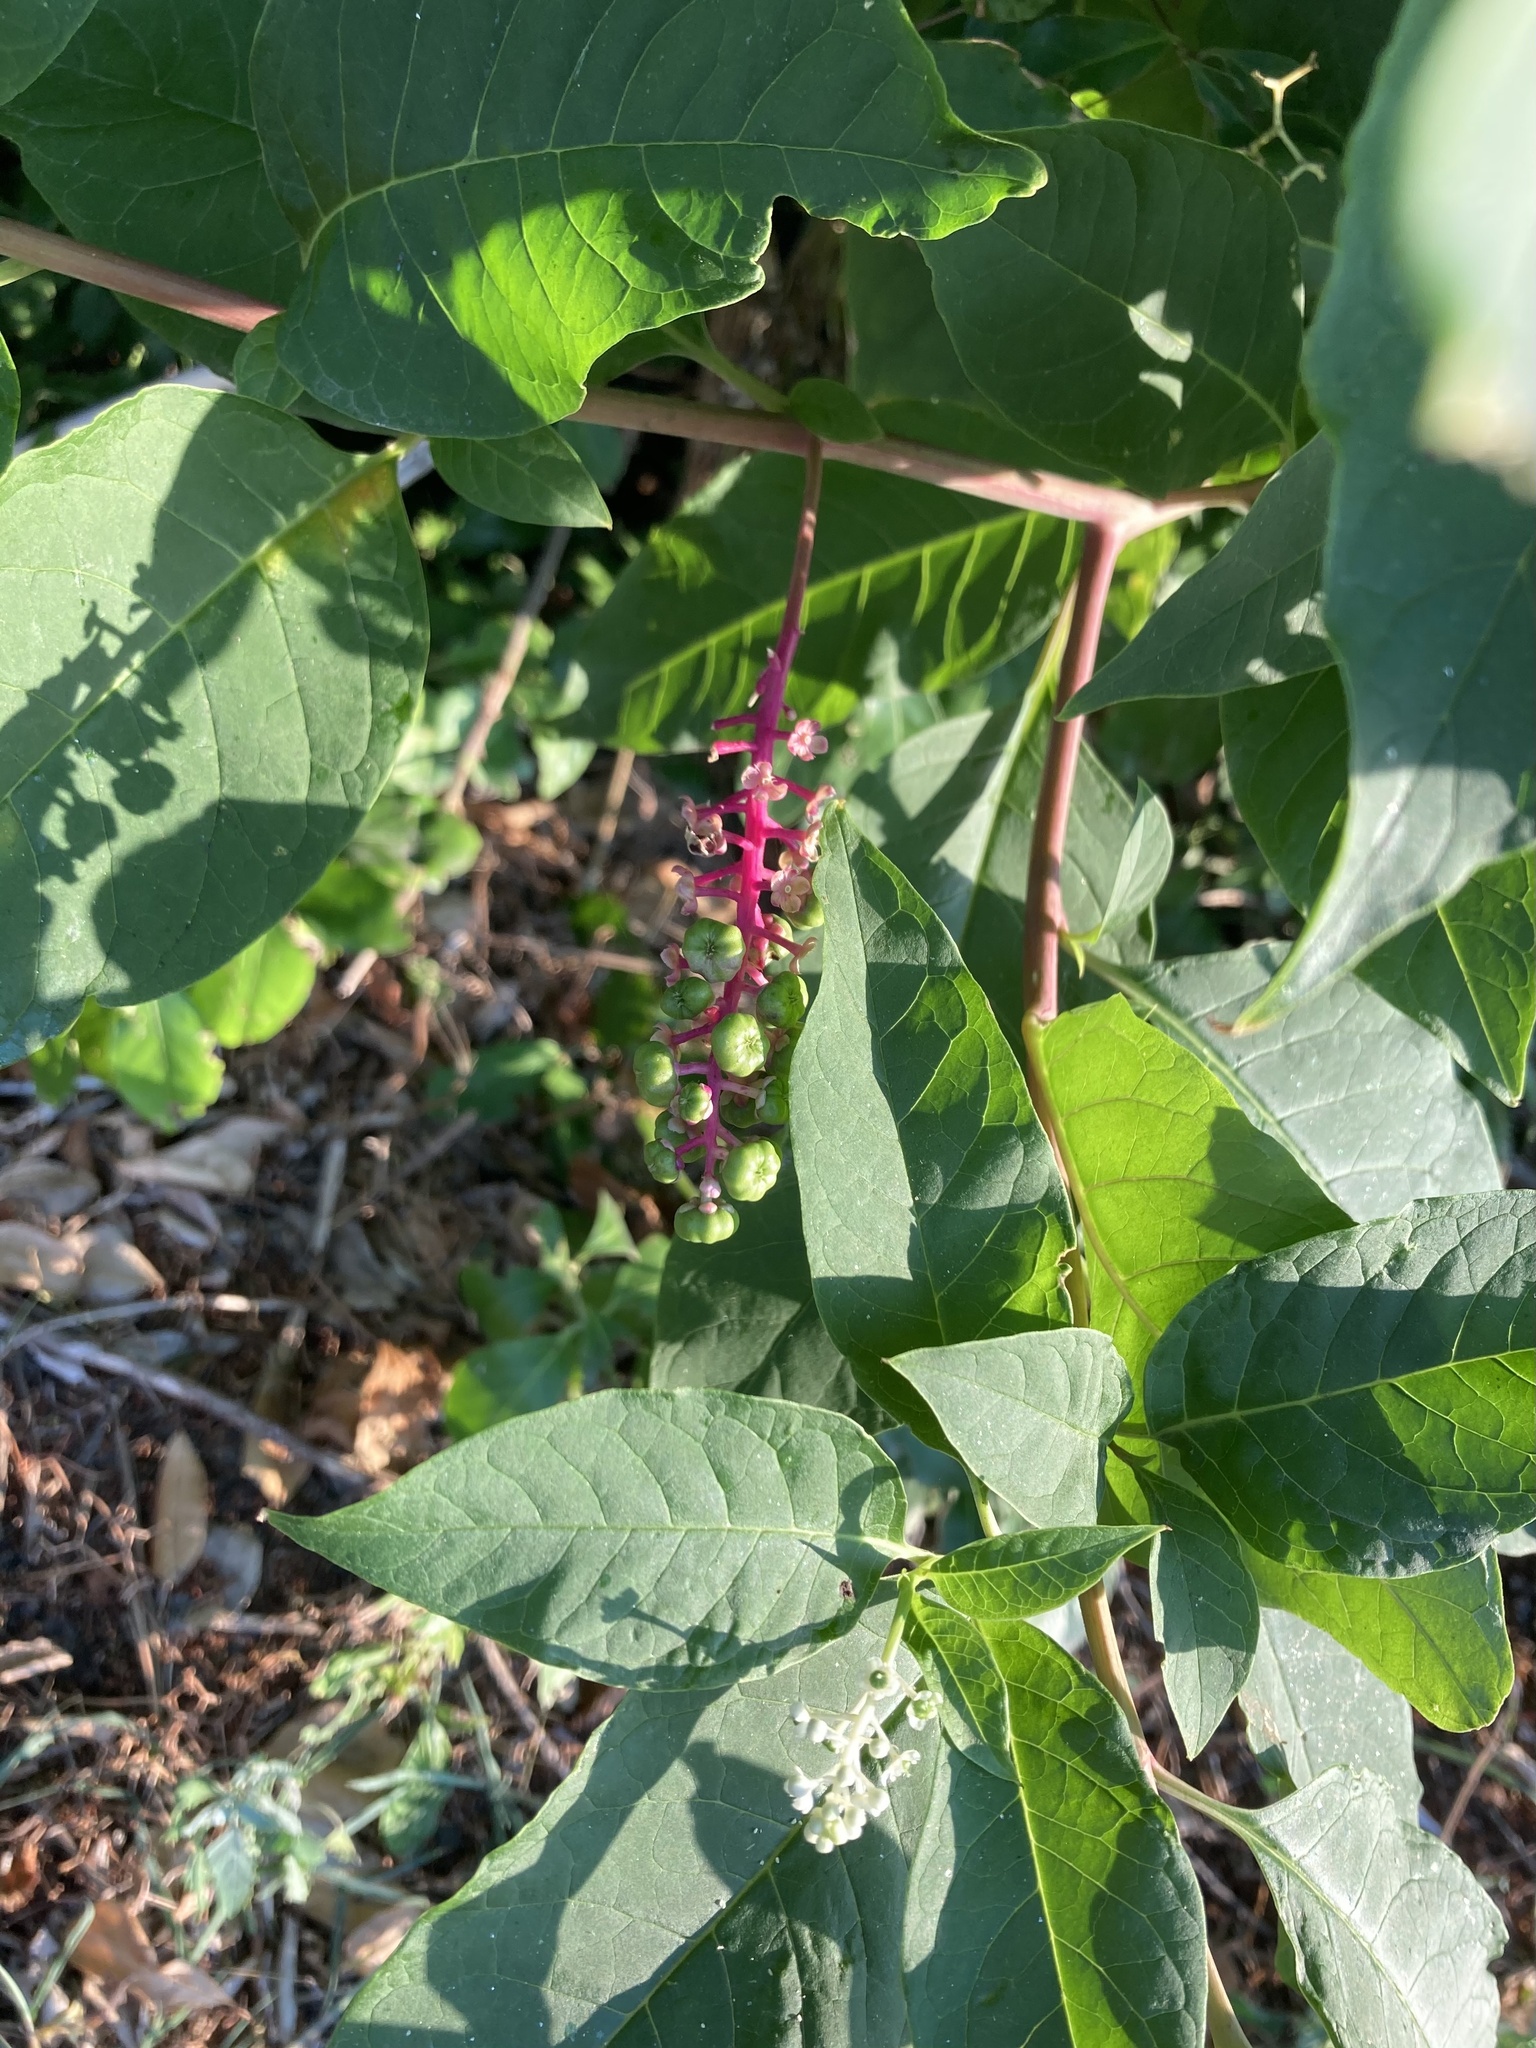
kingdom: Plantae
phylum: Tracheophyta
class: Magnoliopsida
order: Caryophyllales
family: Phytolaccaceae
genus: Phytolacca
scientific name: Phytolacca americana
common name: American pokeweed
